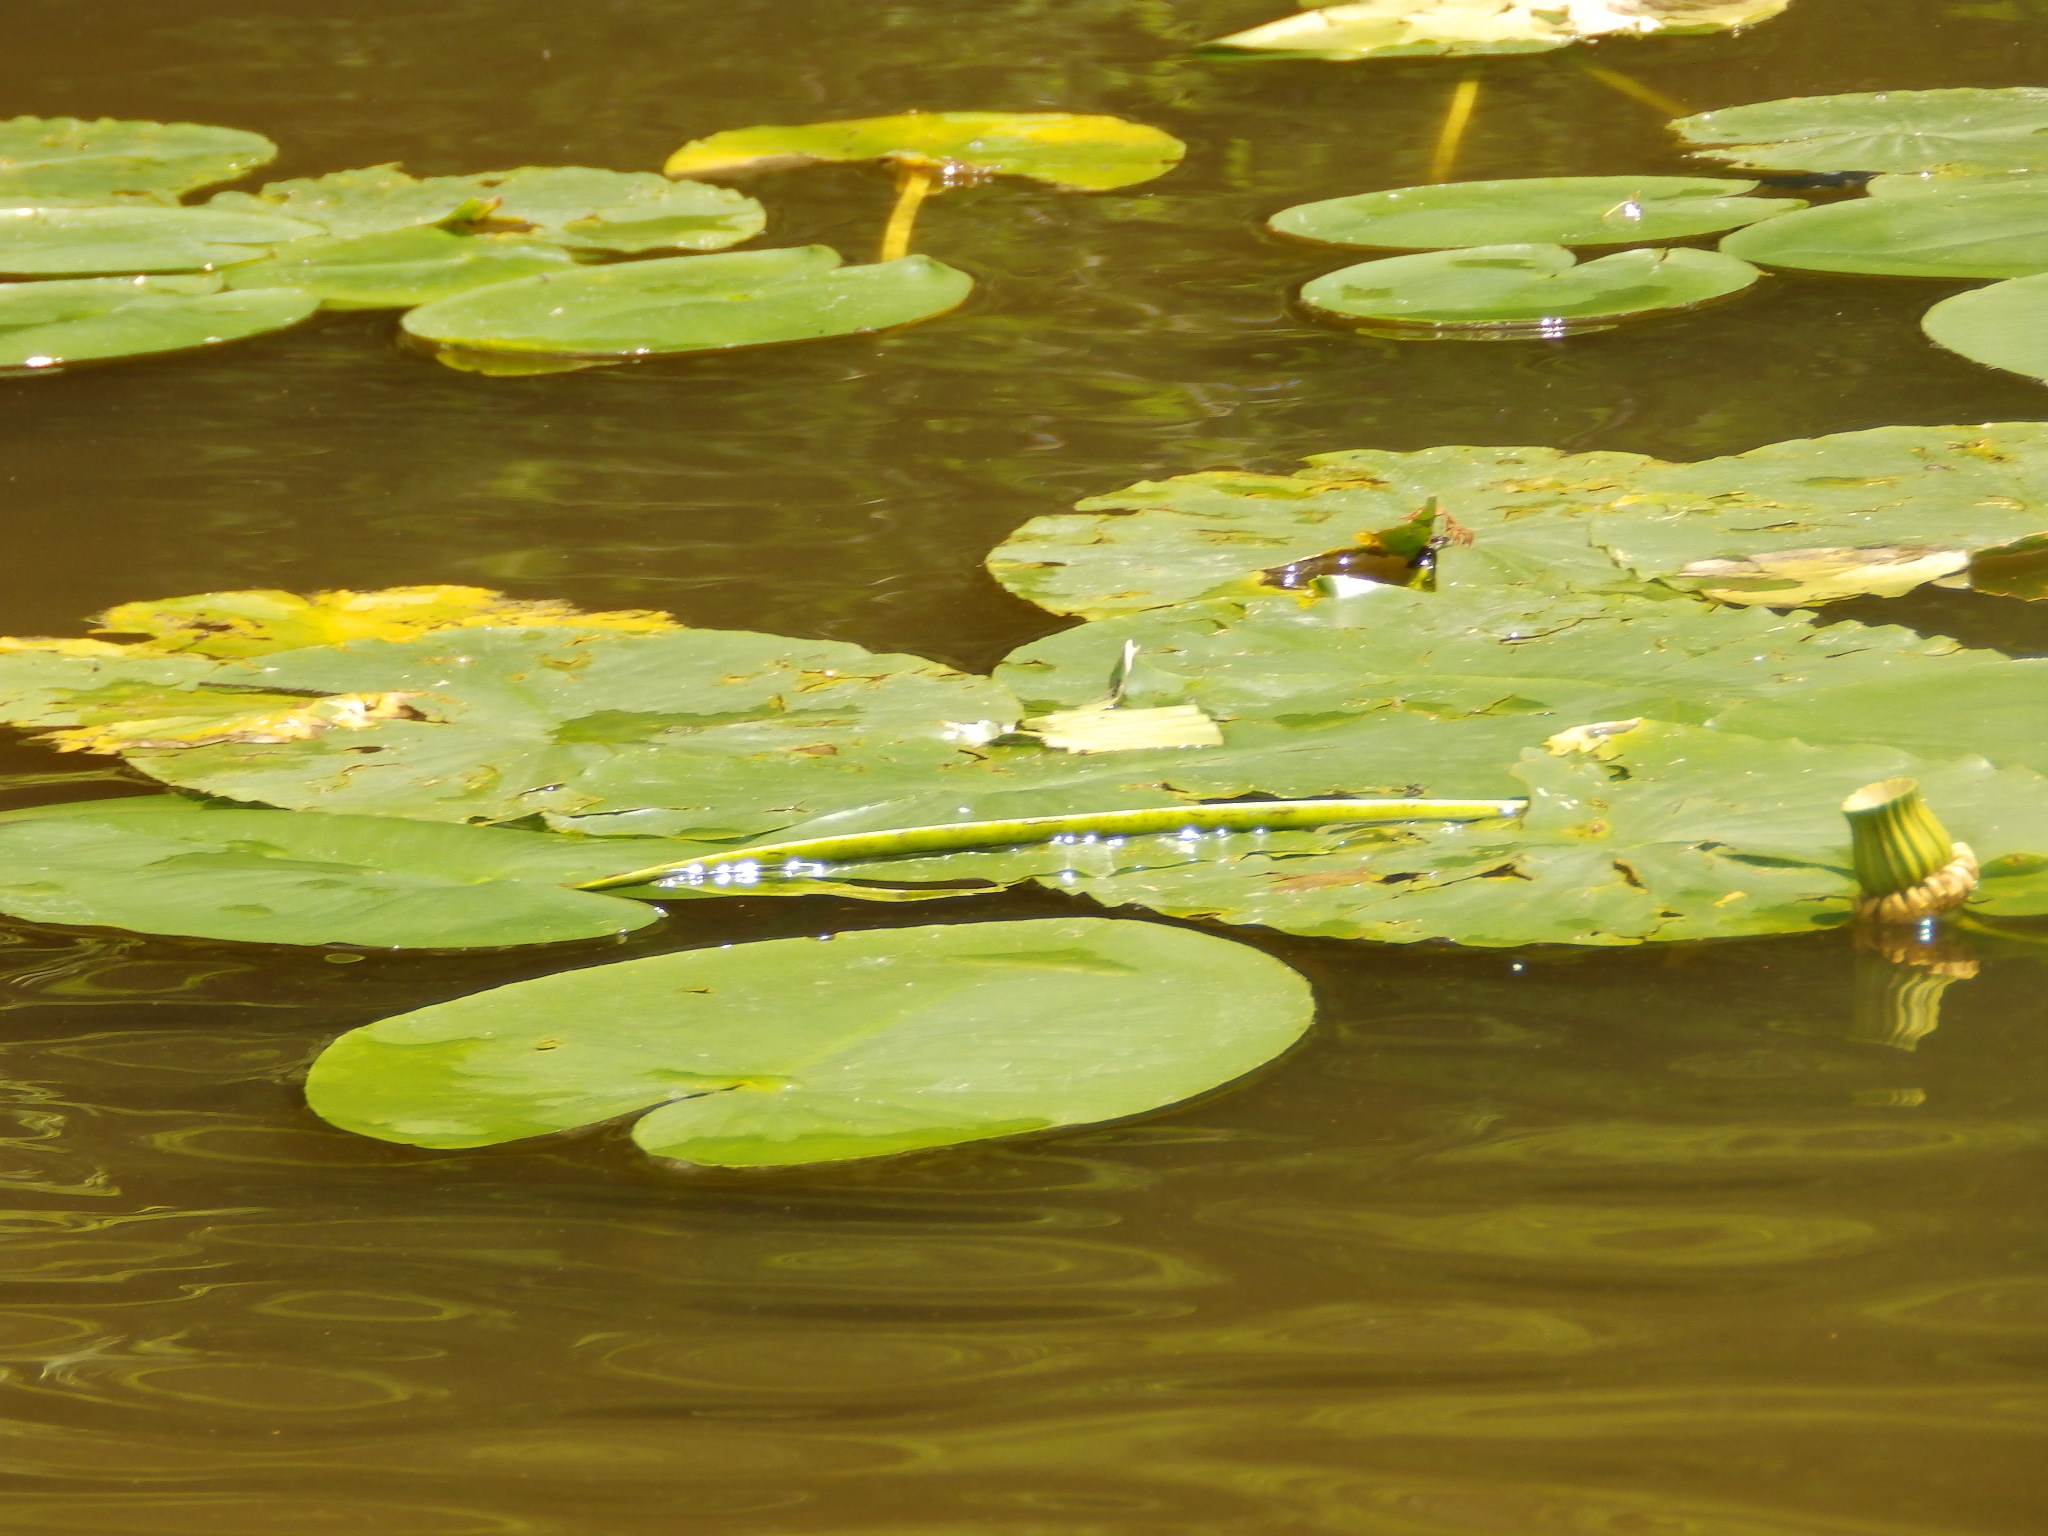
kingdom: Plantae
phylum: Tracheophyta
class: Magnoliopsida
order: Nymphaeales
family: Nymphaeaceae
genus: Nuphar
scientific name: Nuphar advena
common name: Spatter-dock
